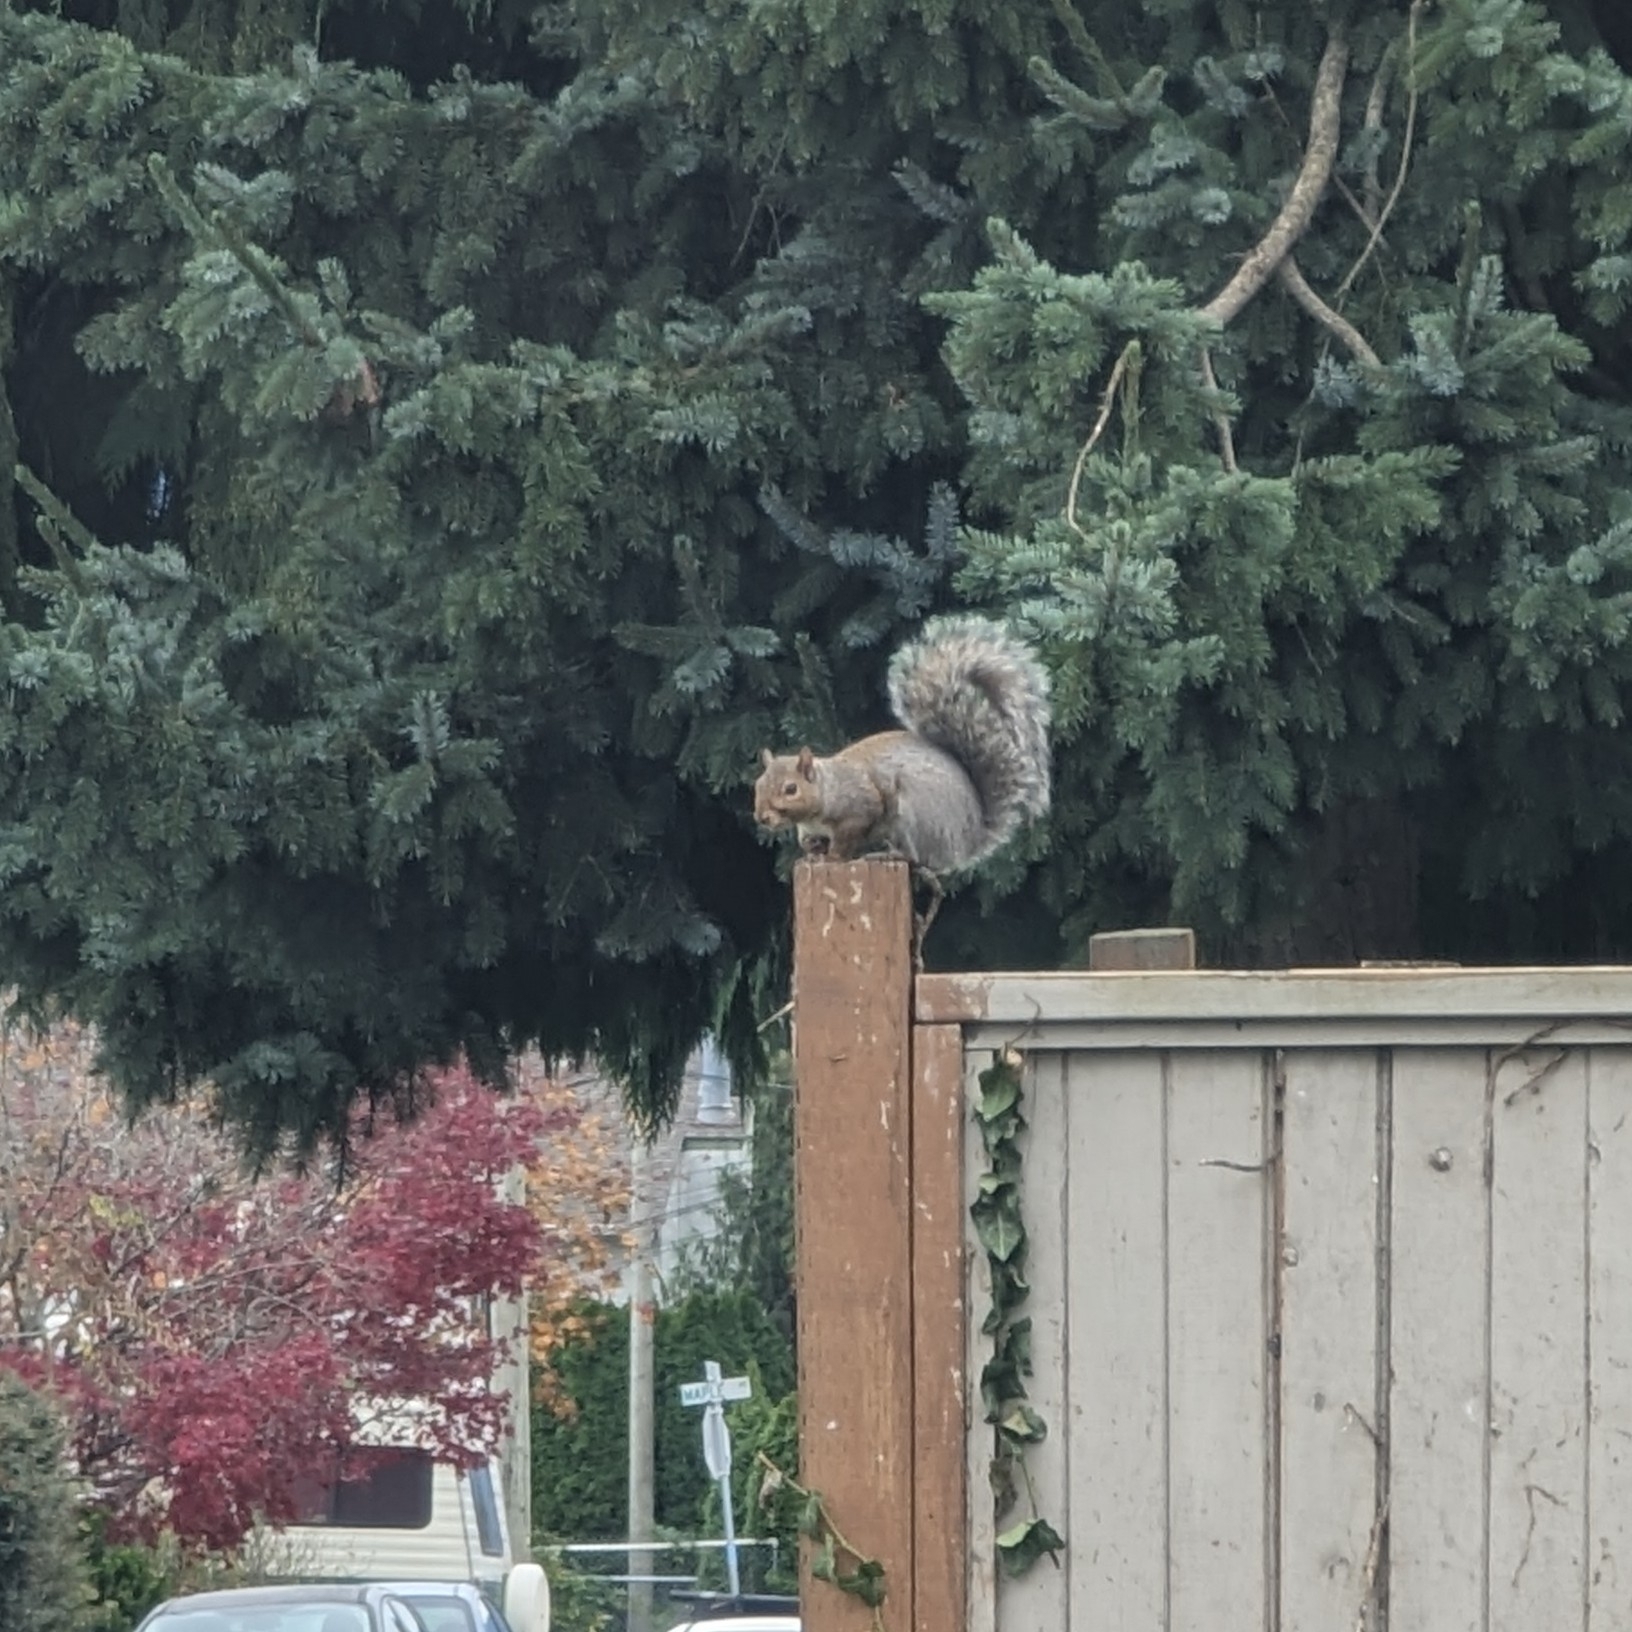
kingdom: Animalia
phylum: Chordata
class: Mammalia
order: Rodentia
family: Sciuridae
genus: Sciurus
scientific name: Sciurus carolinensis
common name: Eastern gray squirrel
